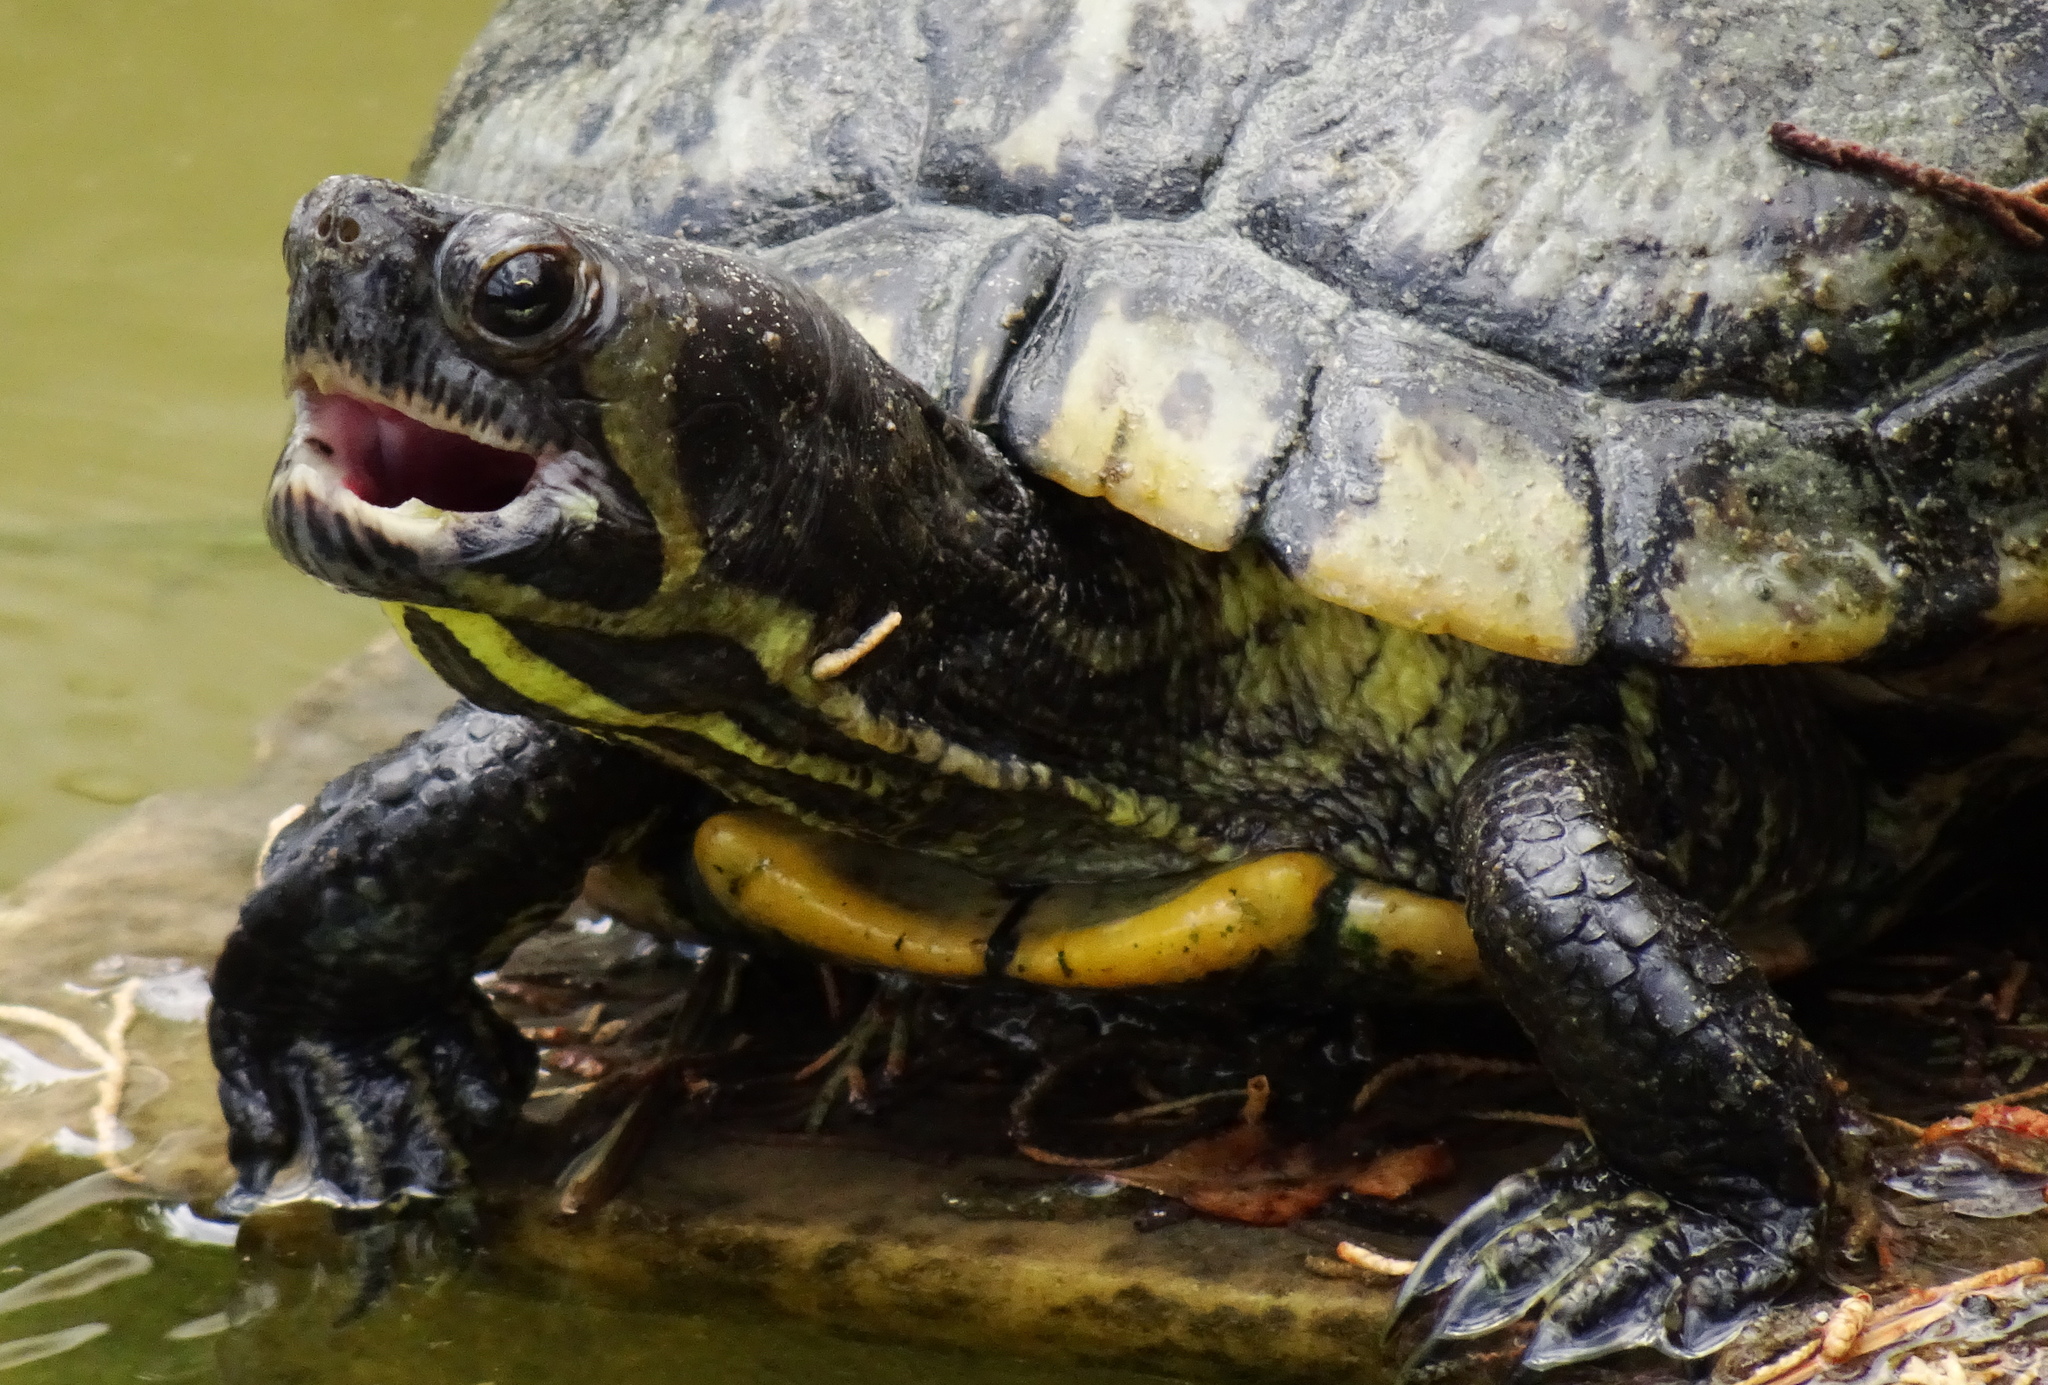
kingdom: Animalia
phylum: Chordata
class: Testudines
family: Emydidae
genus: Trachemys
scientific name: Trachemys scripta
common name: Slider
